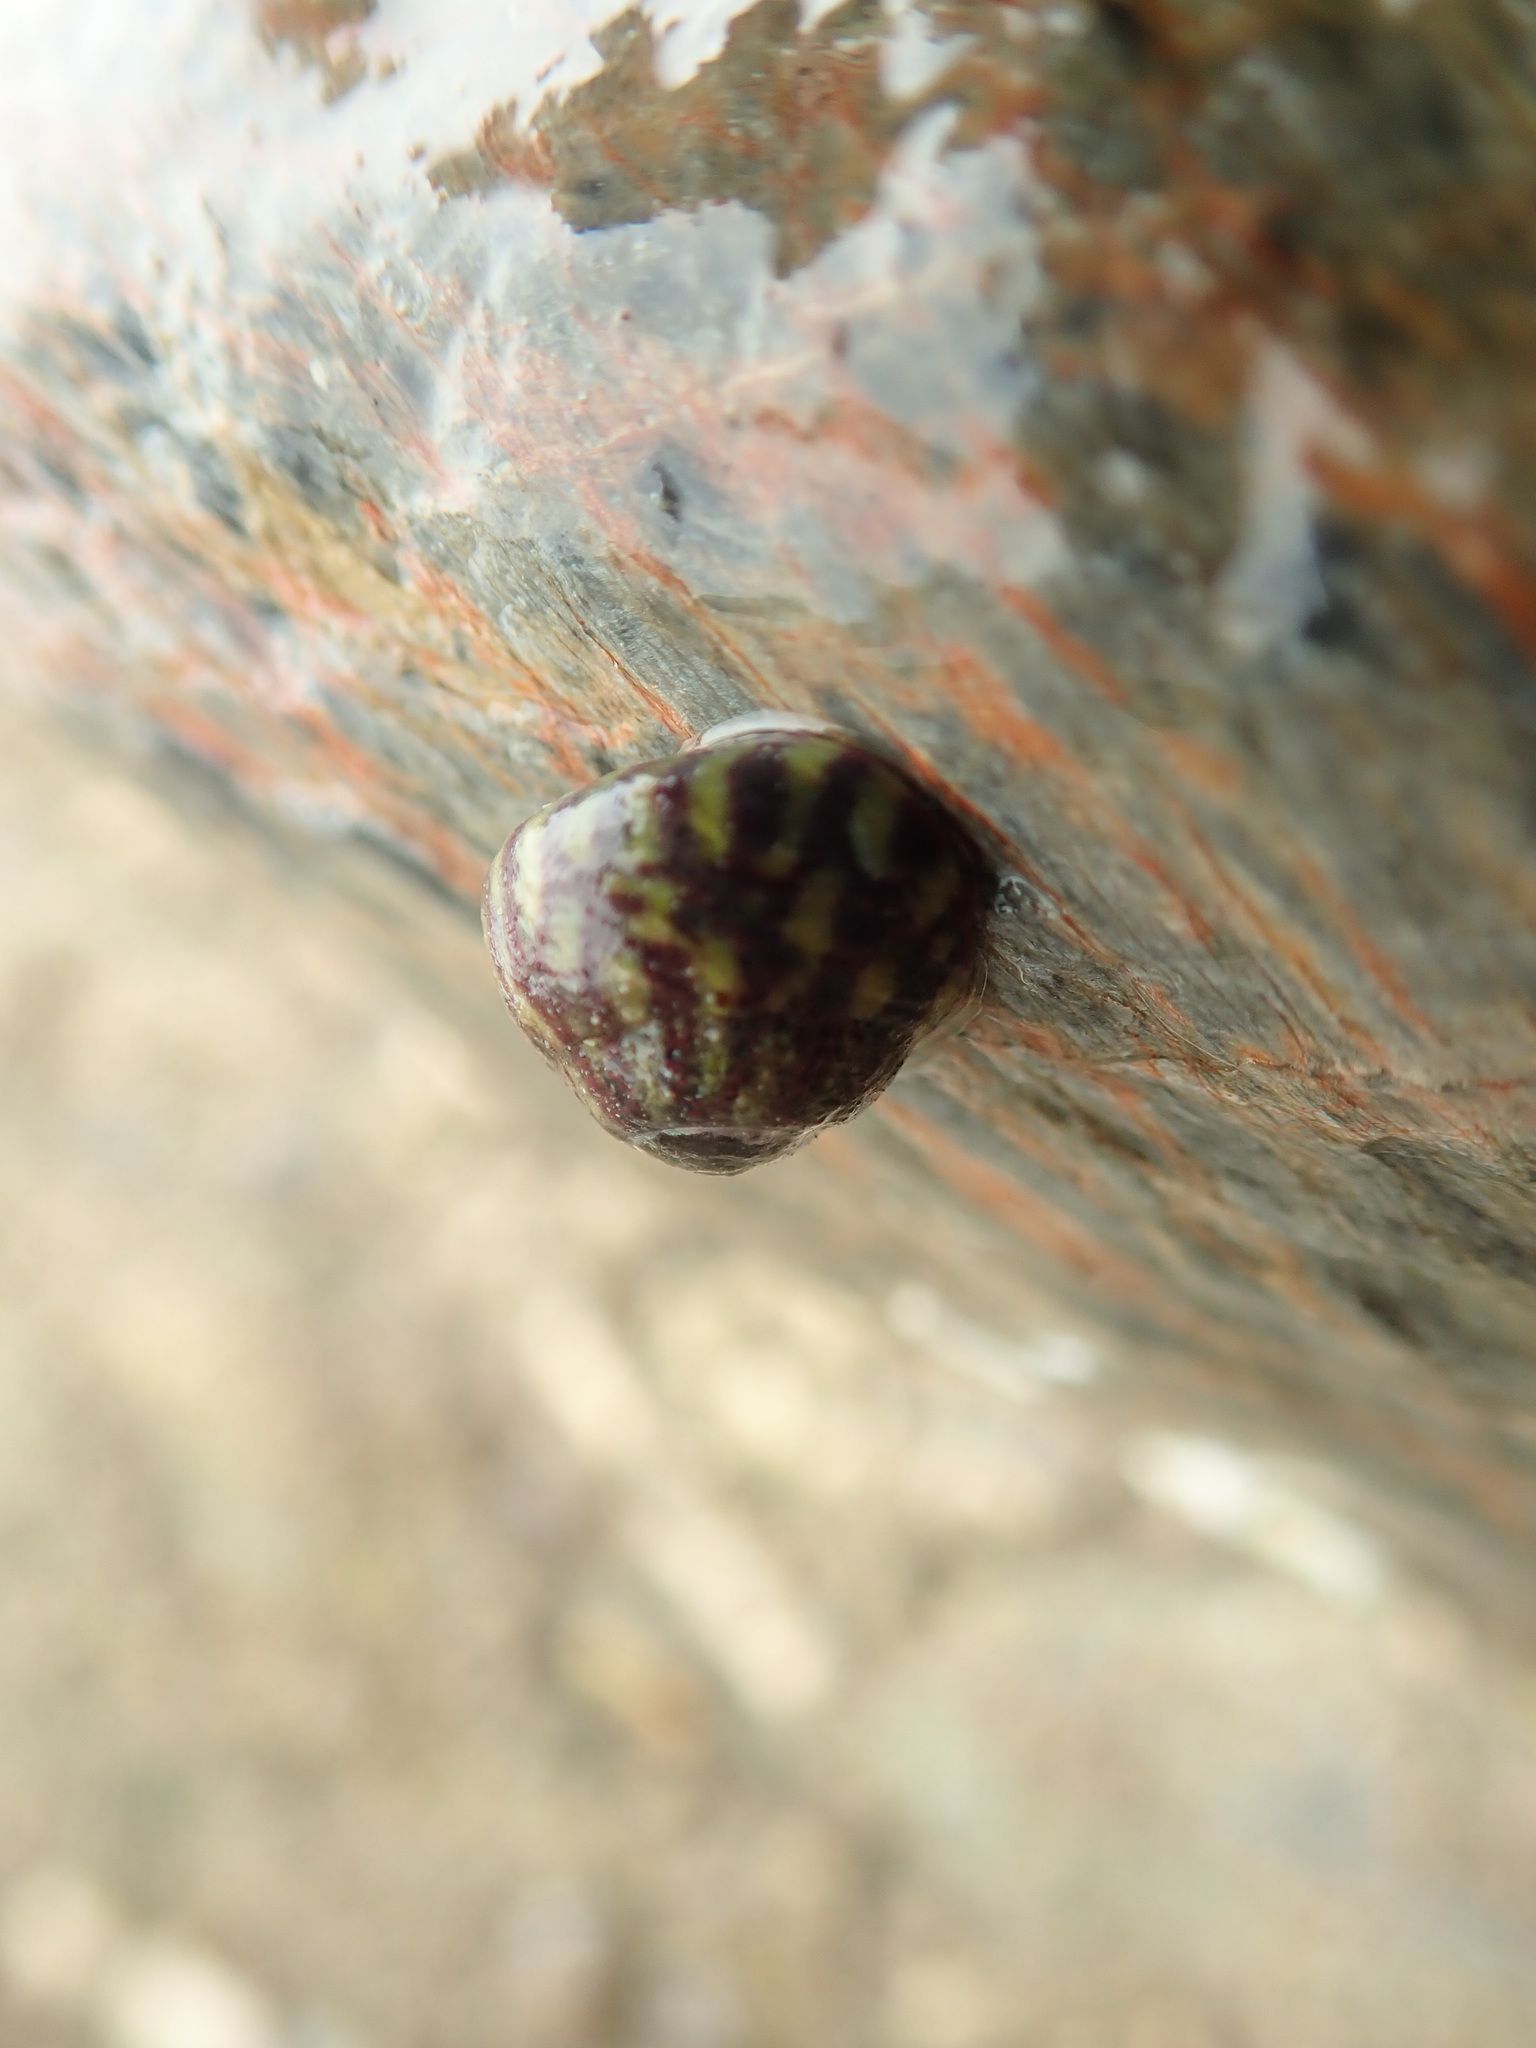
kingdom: Animalia
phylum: Mollusca
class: Gastropoda
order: Trochida
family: Trochidae
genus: Steromphala
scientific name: Steromphala umbilicalis
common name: Flat top shell
